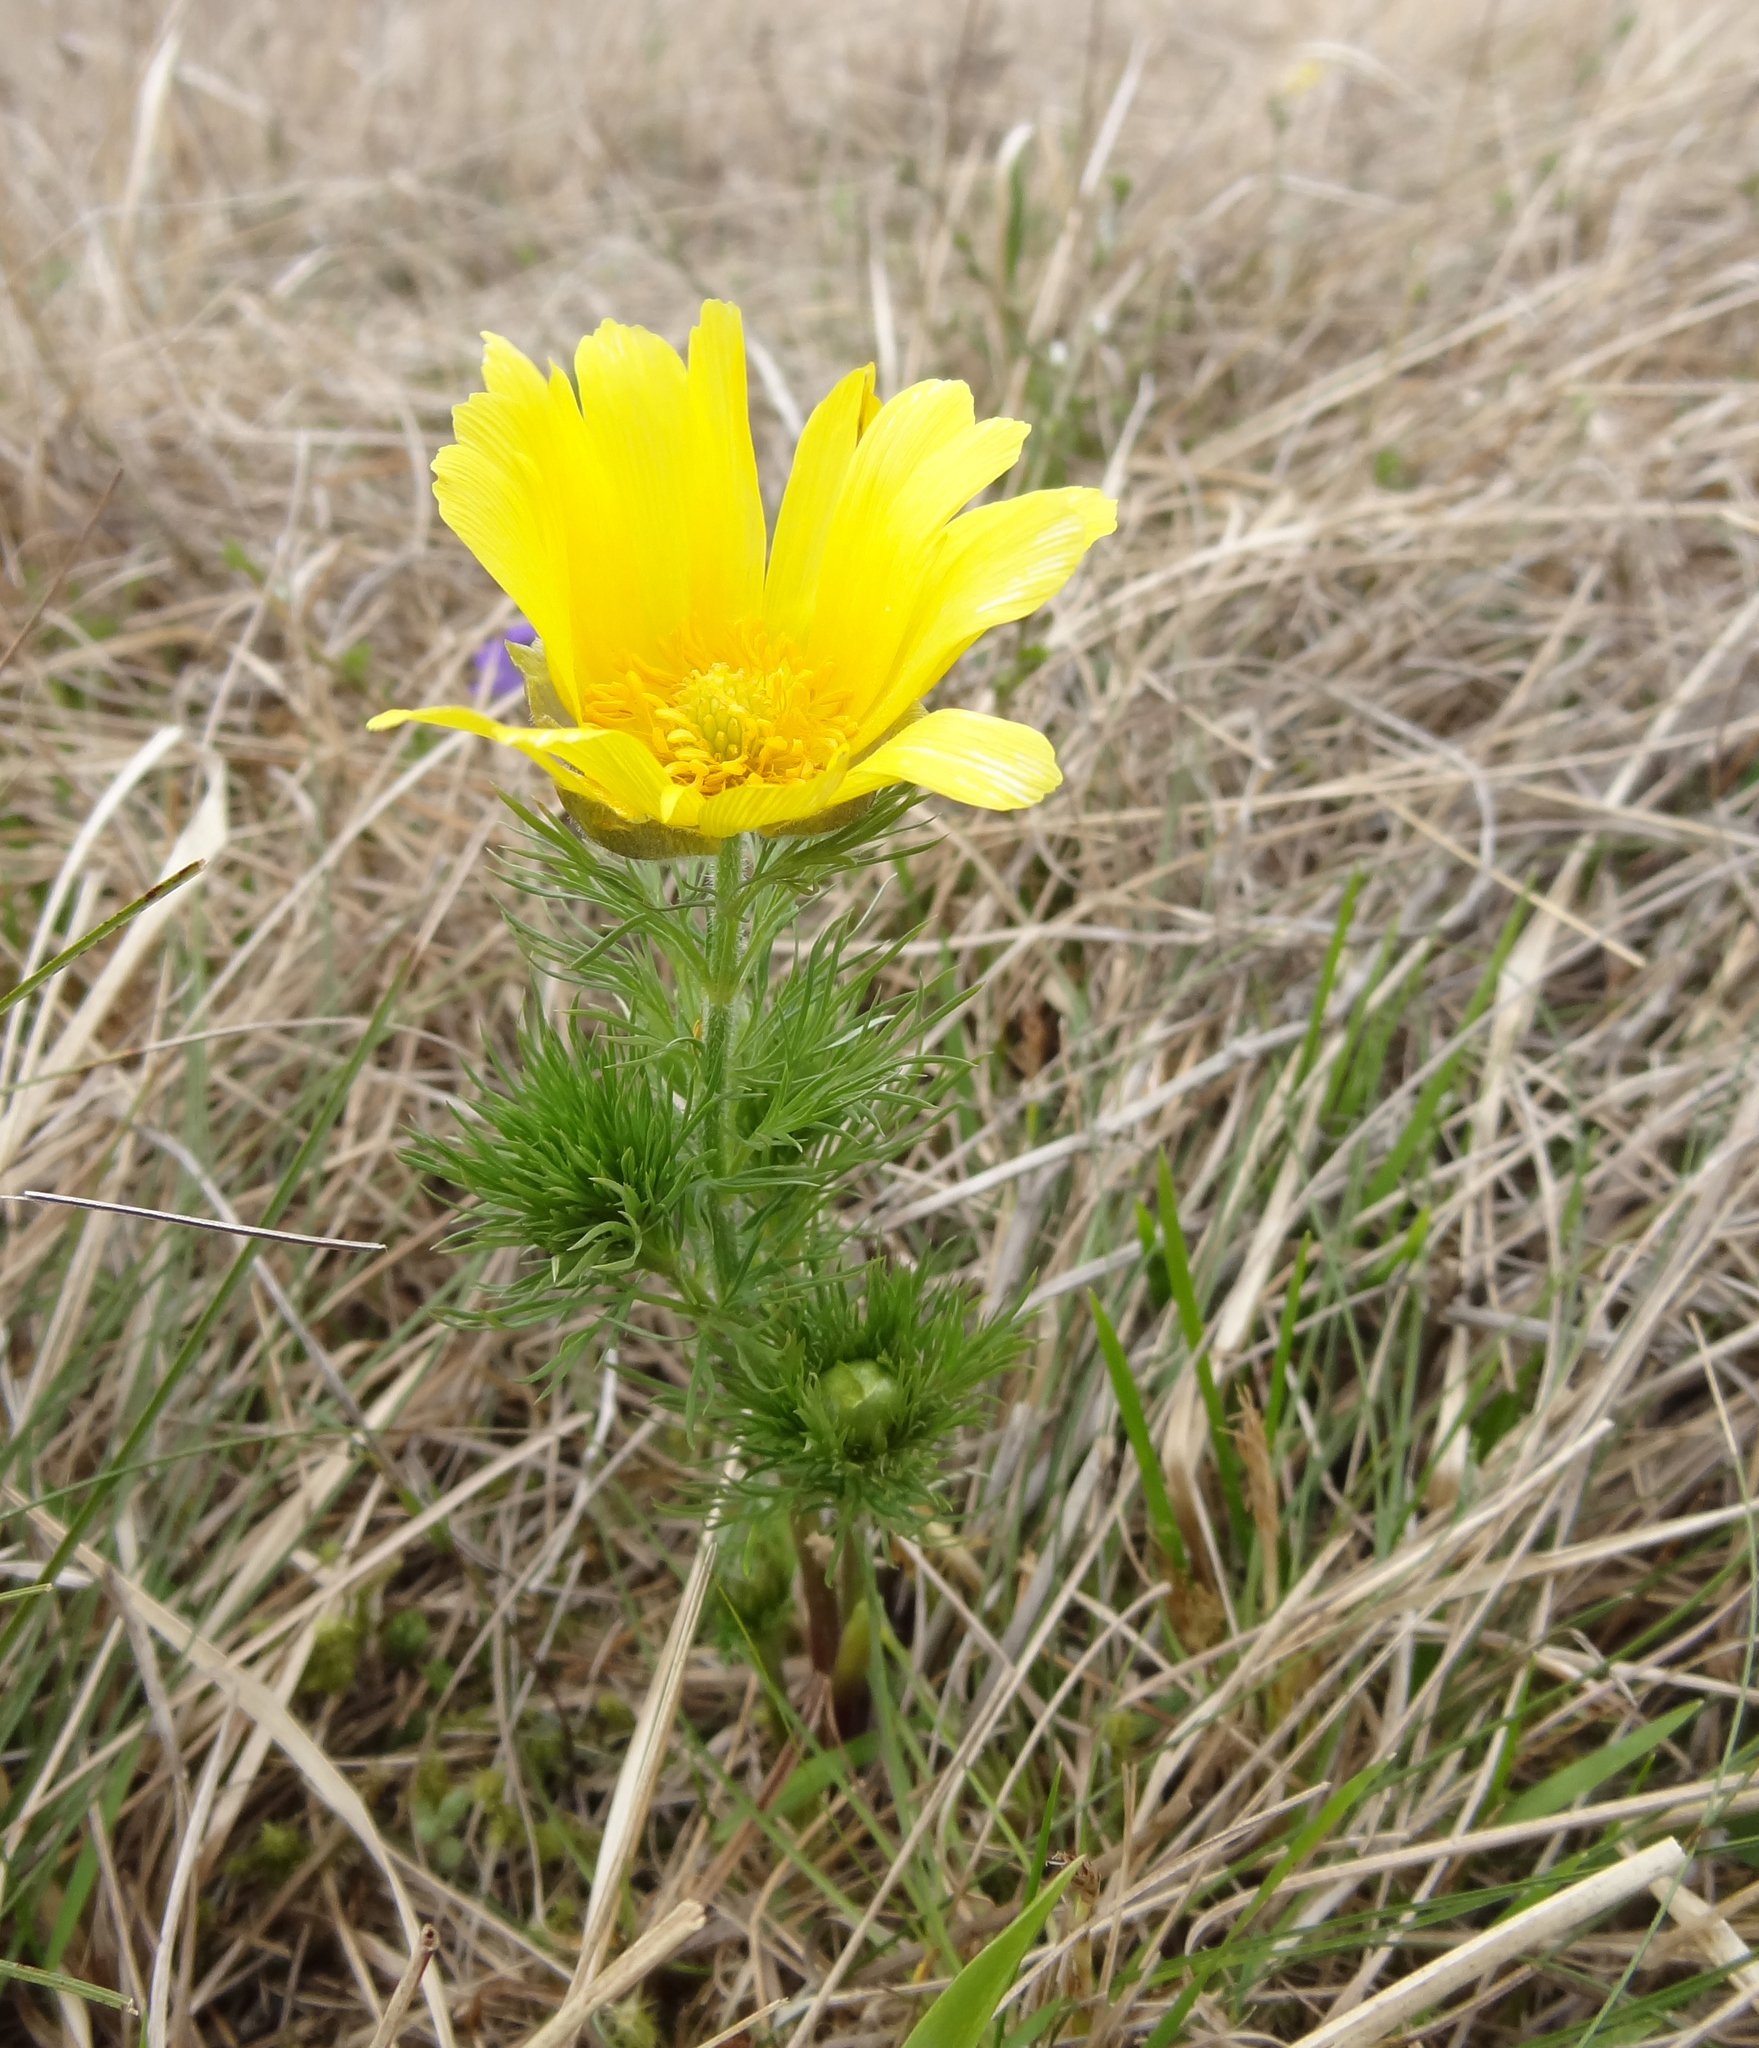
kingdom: Plantae
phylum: Tracheophyta
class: Magnoliopsida
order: Ranunculales
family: Ranunculaceae
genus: Adonis
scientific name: Adonis vernalis
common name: Yellow pheasants-eye
